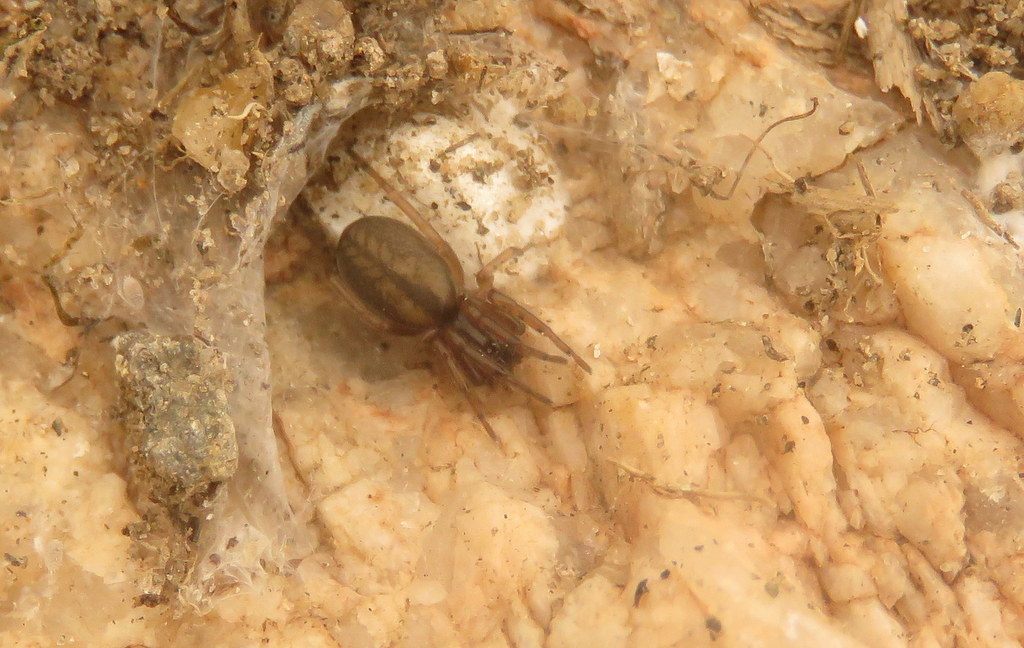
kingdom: Animalia
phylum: Arthropoda
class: Arachnida
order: Araneae
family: Trachelidae
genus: Meriola
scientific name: Meriola
